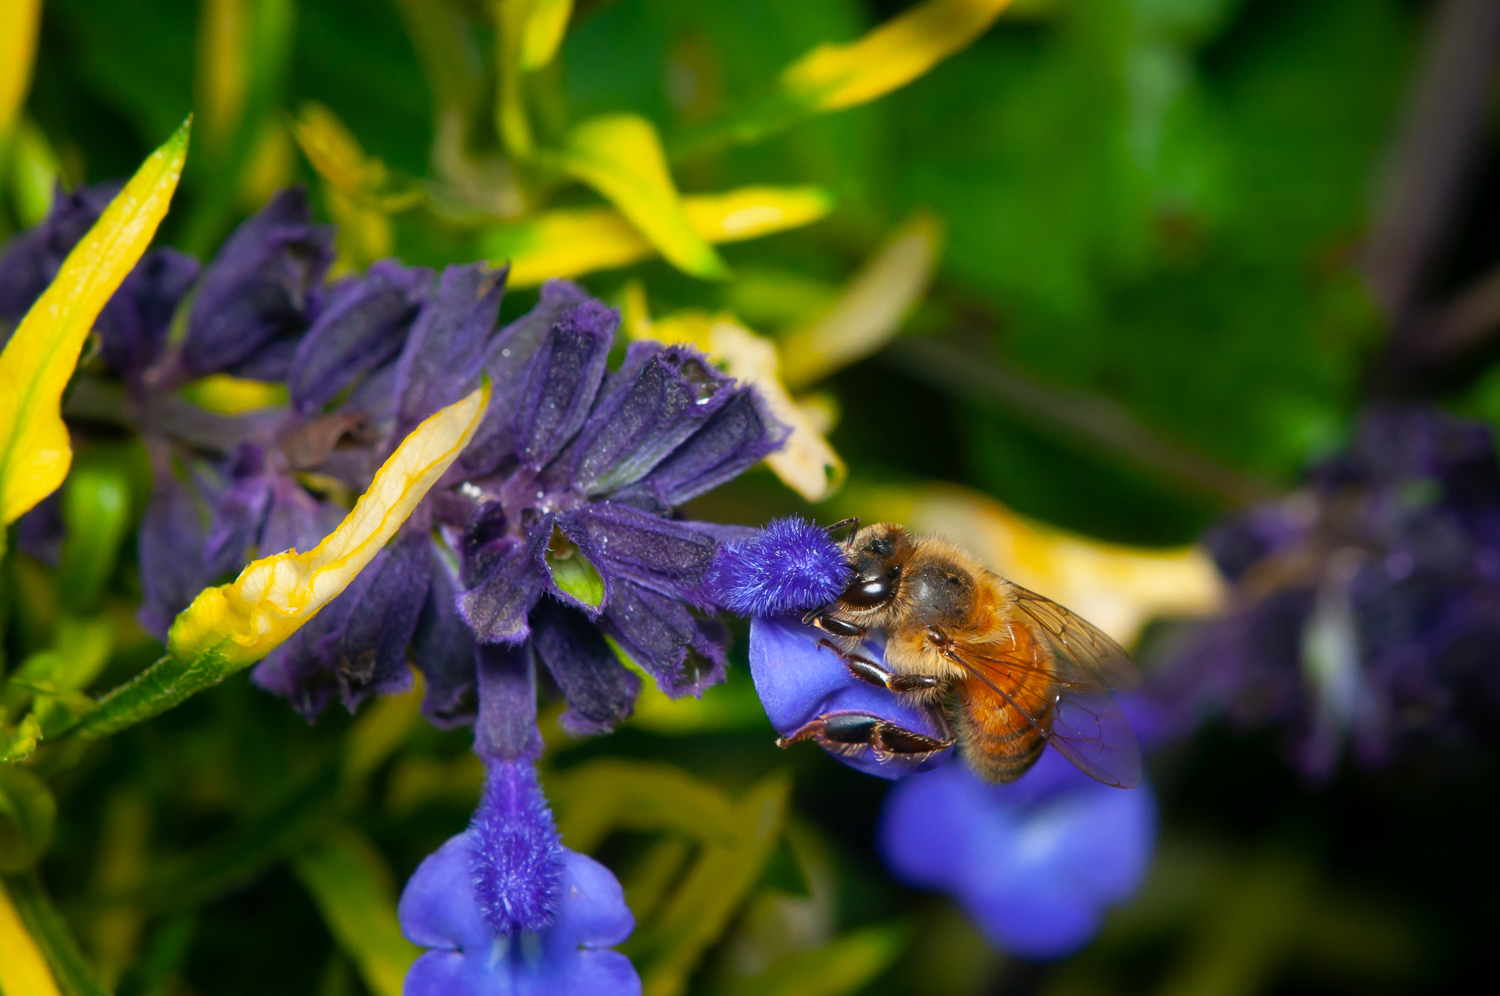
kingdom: Animalia
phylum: Arthropoda
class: Insecta
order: Hymenoptera
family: Apidae
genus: Apis
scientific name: Apis mellifera
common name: Honey bee
